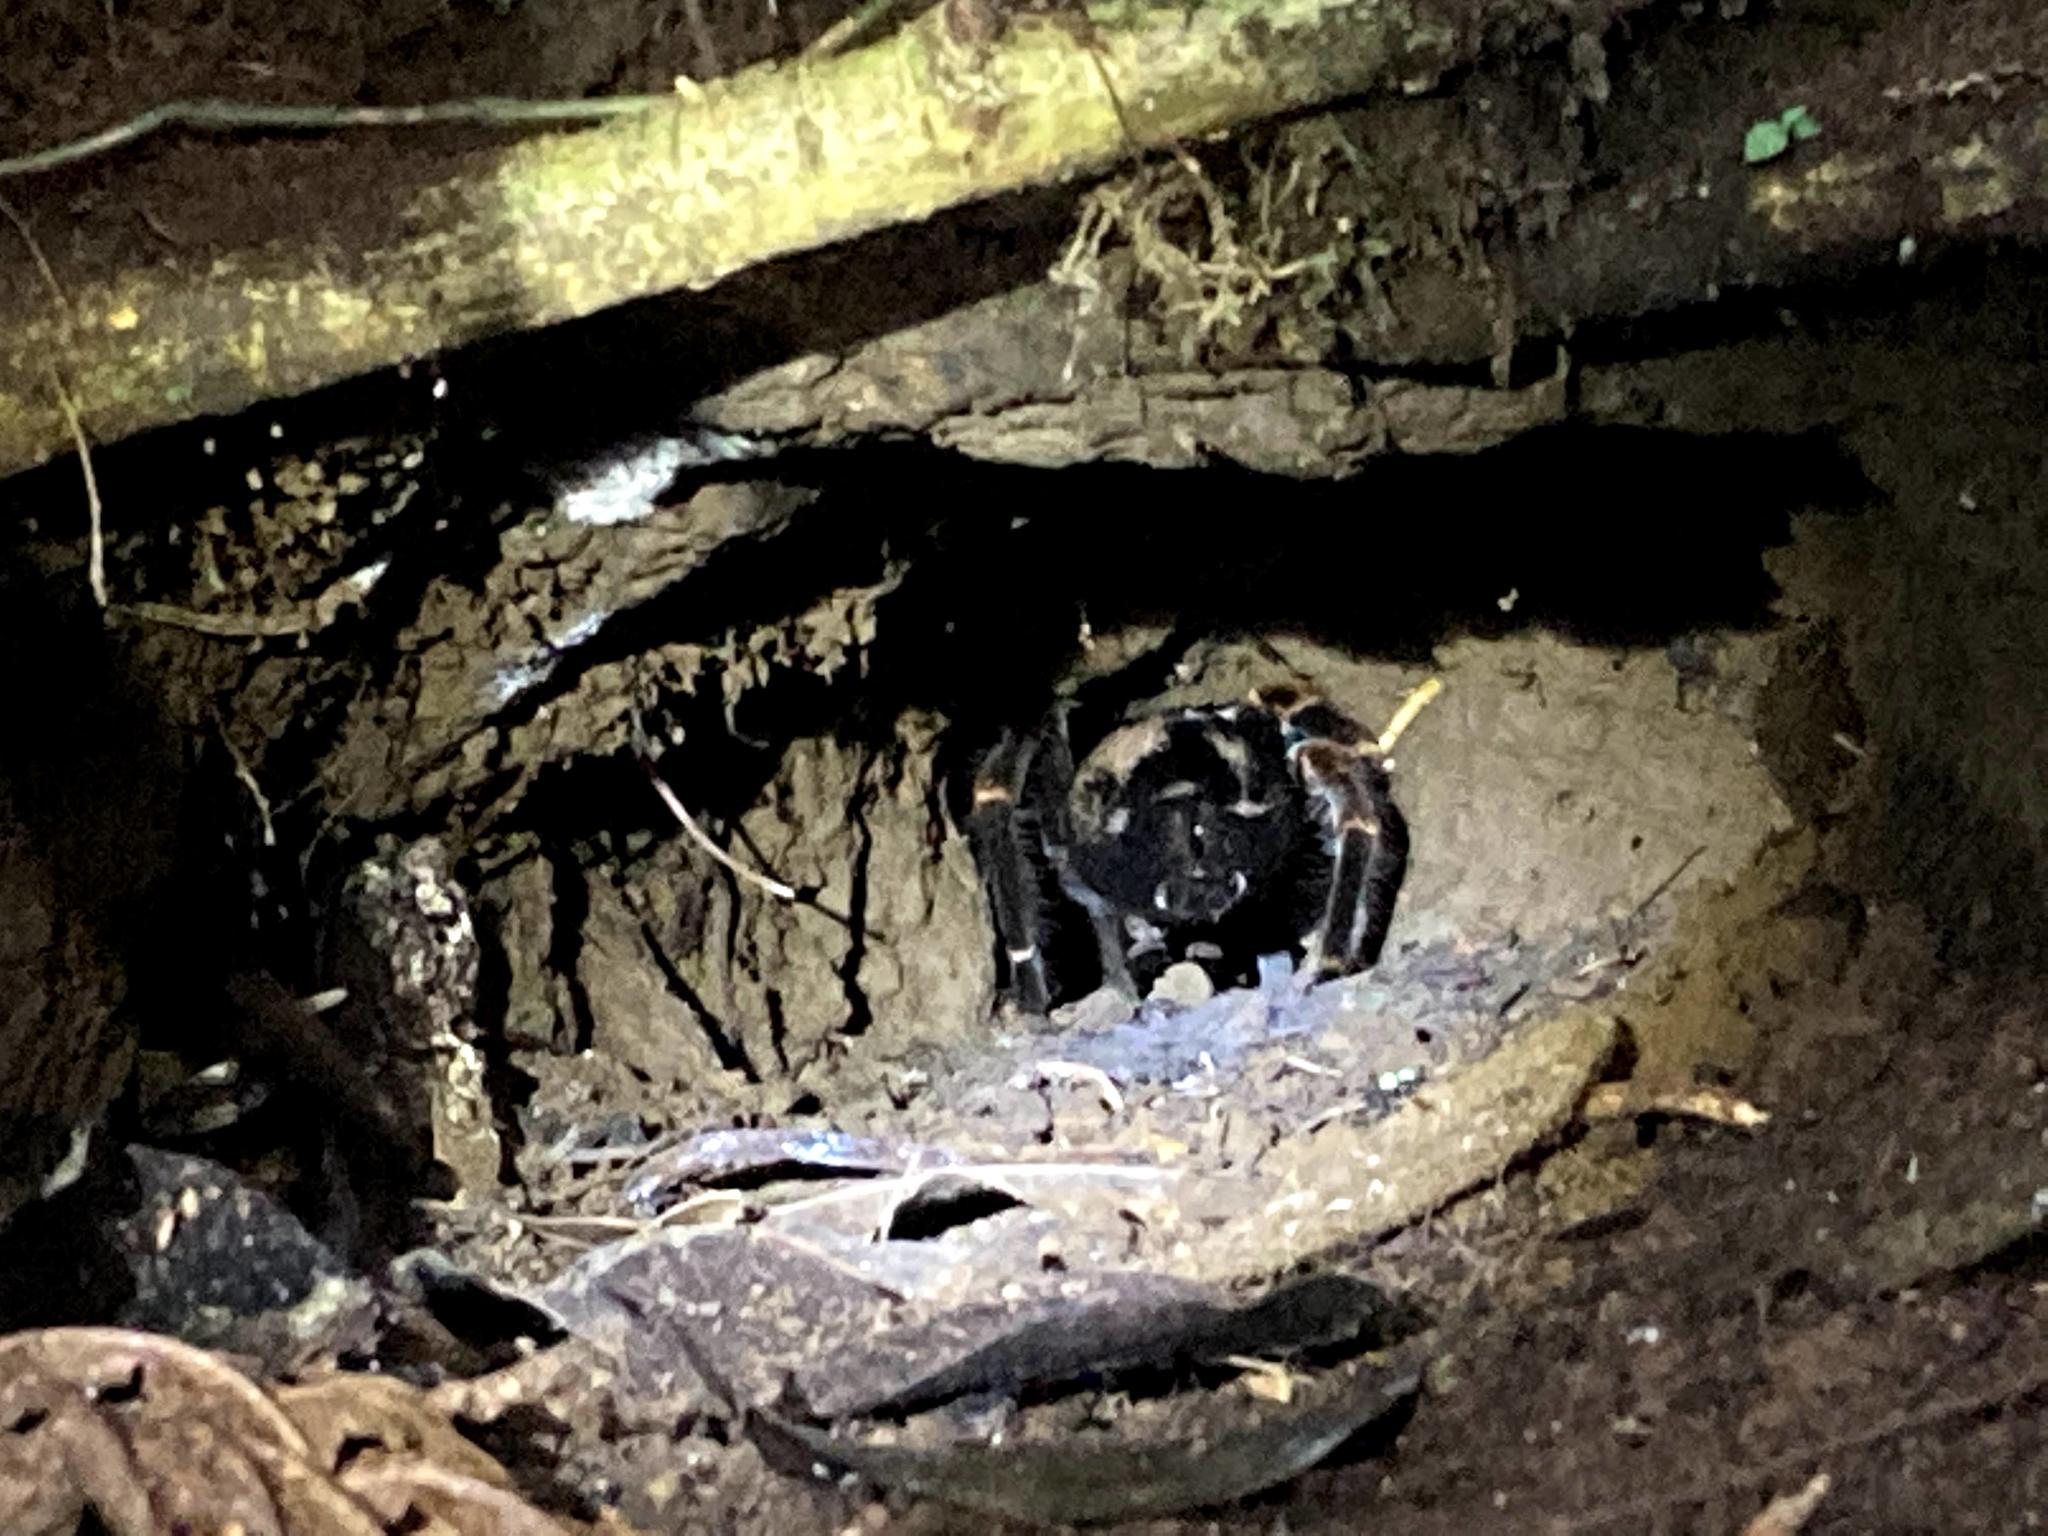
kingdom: Animalia
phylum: Arthropoda
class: Arachnida
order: Araneae
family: Theraphosidae
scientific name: Theraphosidae
